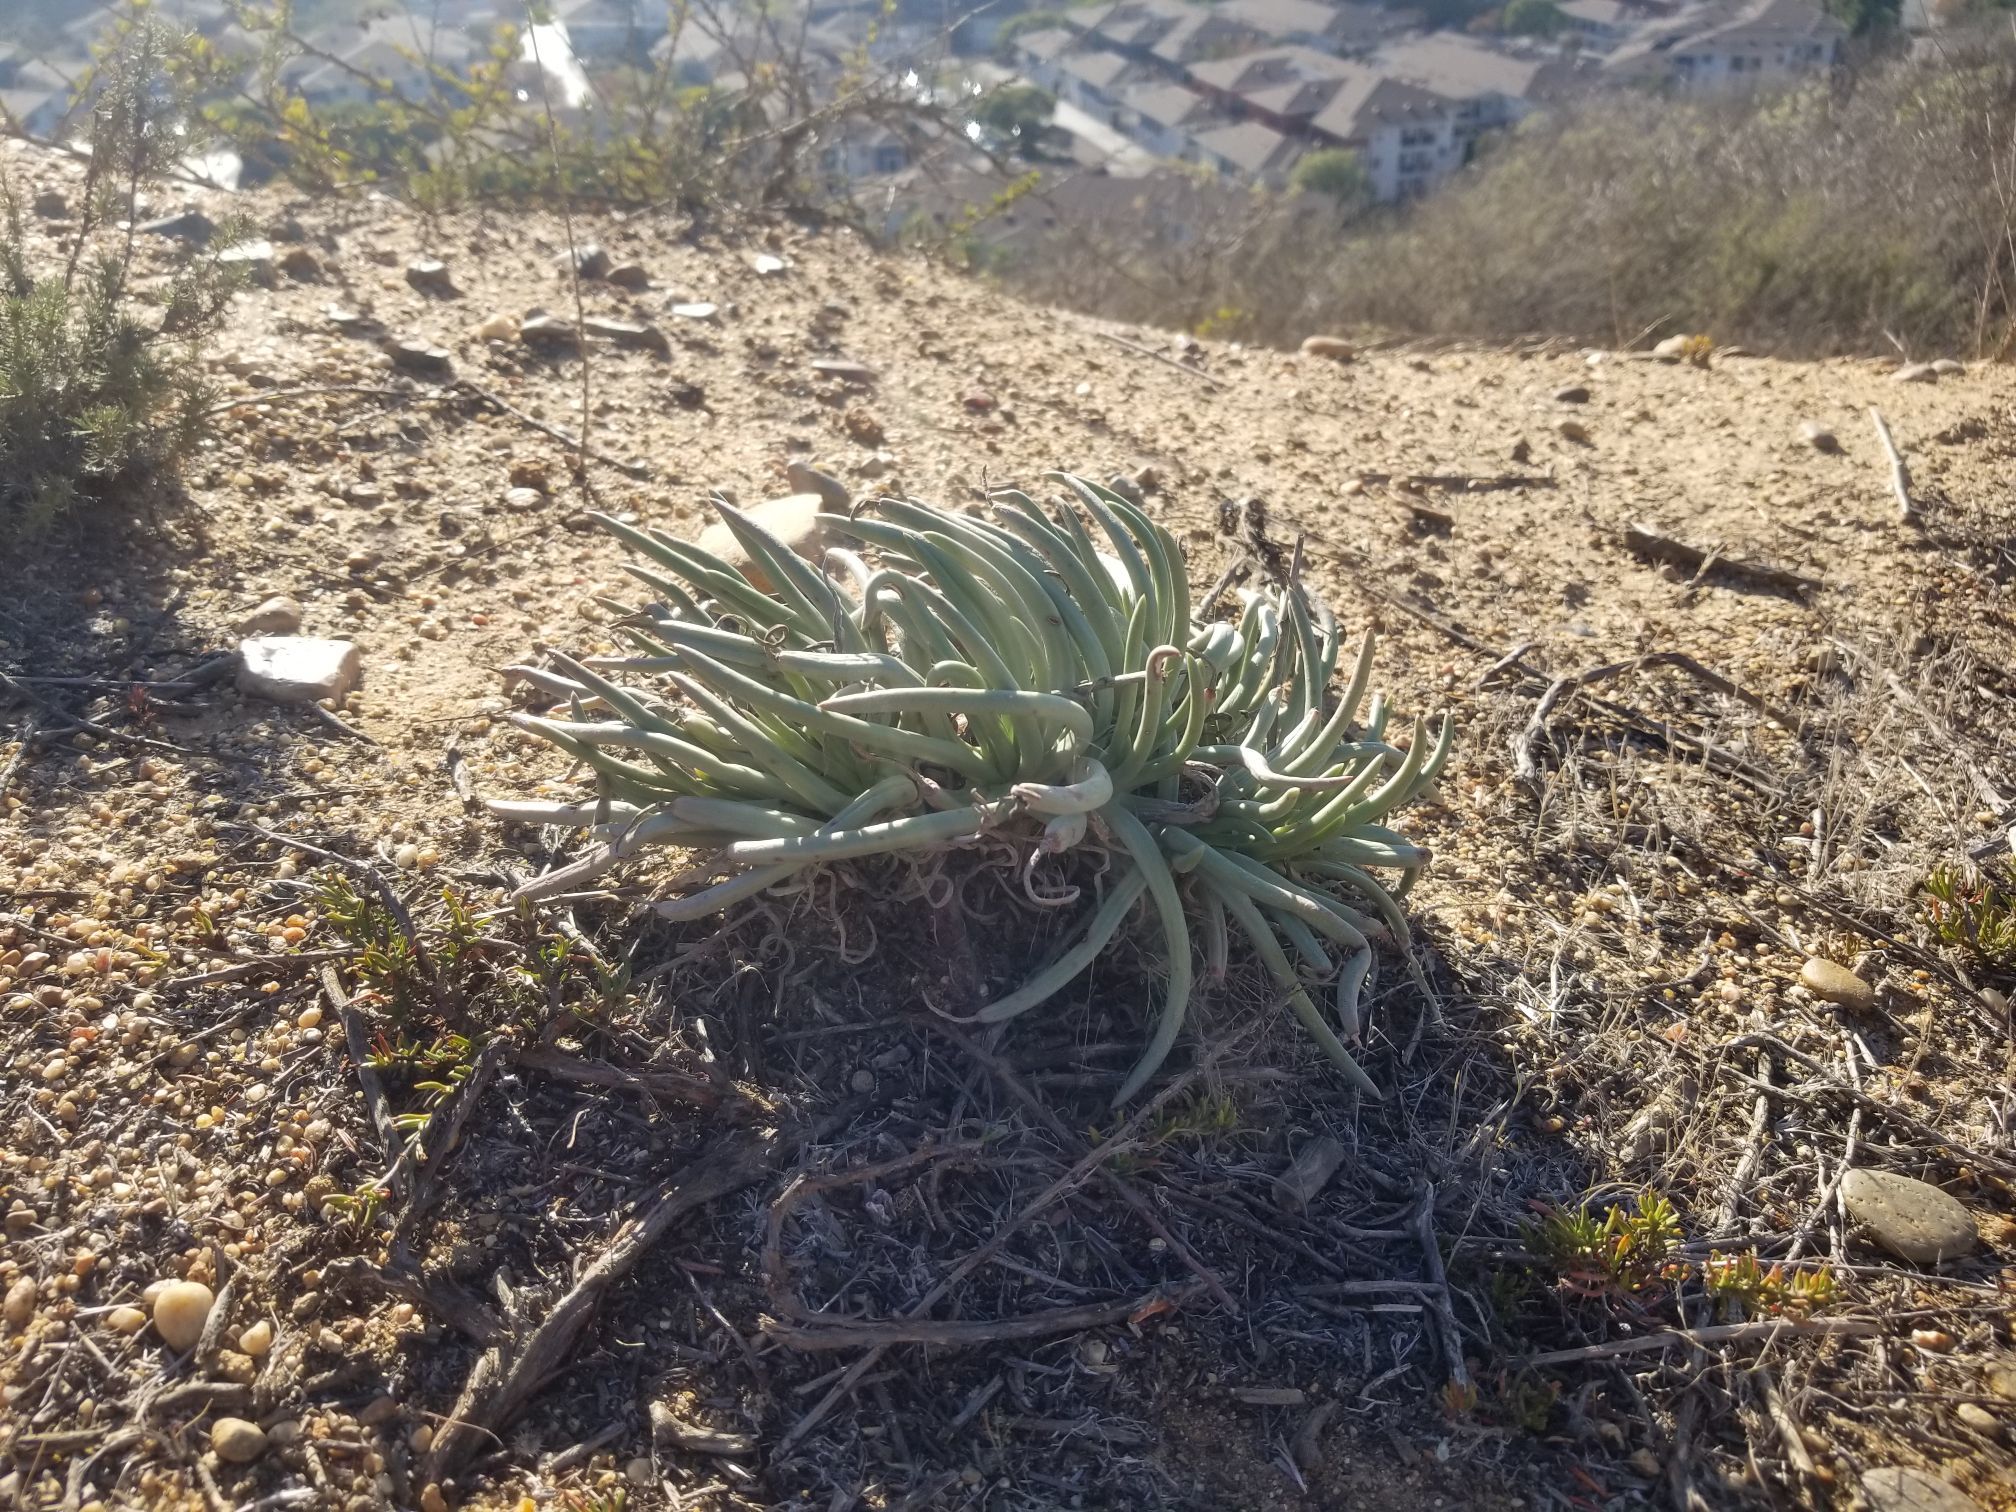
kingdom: Plantae
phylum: Tracheophyta
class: Magnoliopsida
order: Saxifragales
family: Crassulaceae
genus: Dudleya
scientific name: Dudleya edulis
